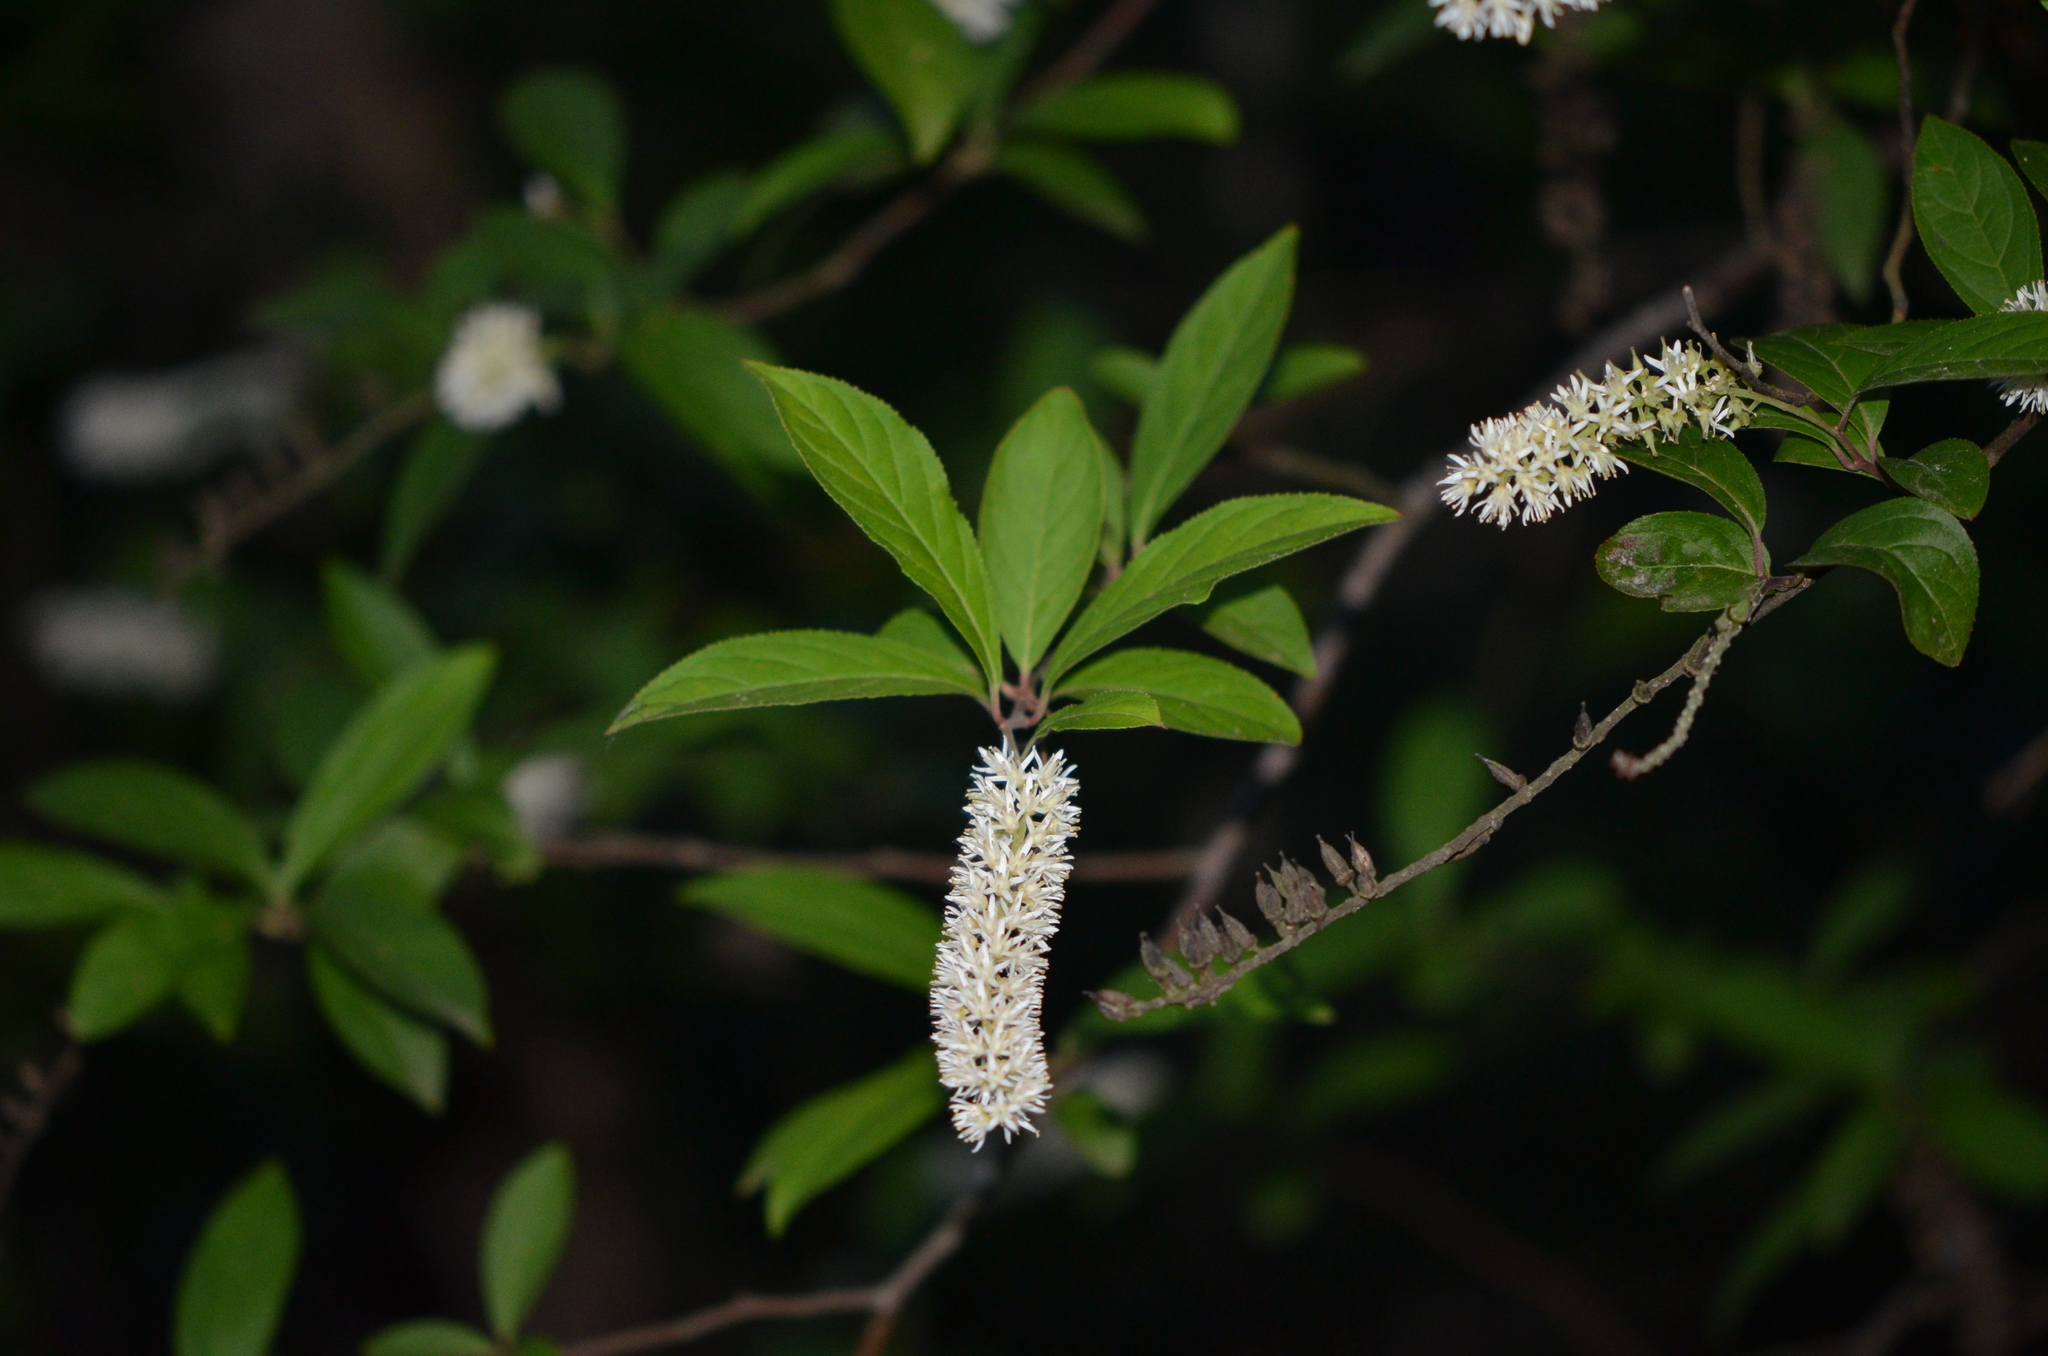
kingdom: Plantae
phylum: Tracheophyta
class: Magnoliopsida
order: Saxifragales
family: Iteaceae
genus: Itea
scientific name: Itea virginica
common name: Sweetspire
